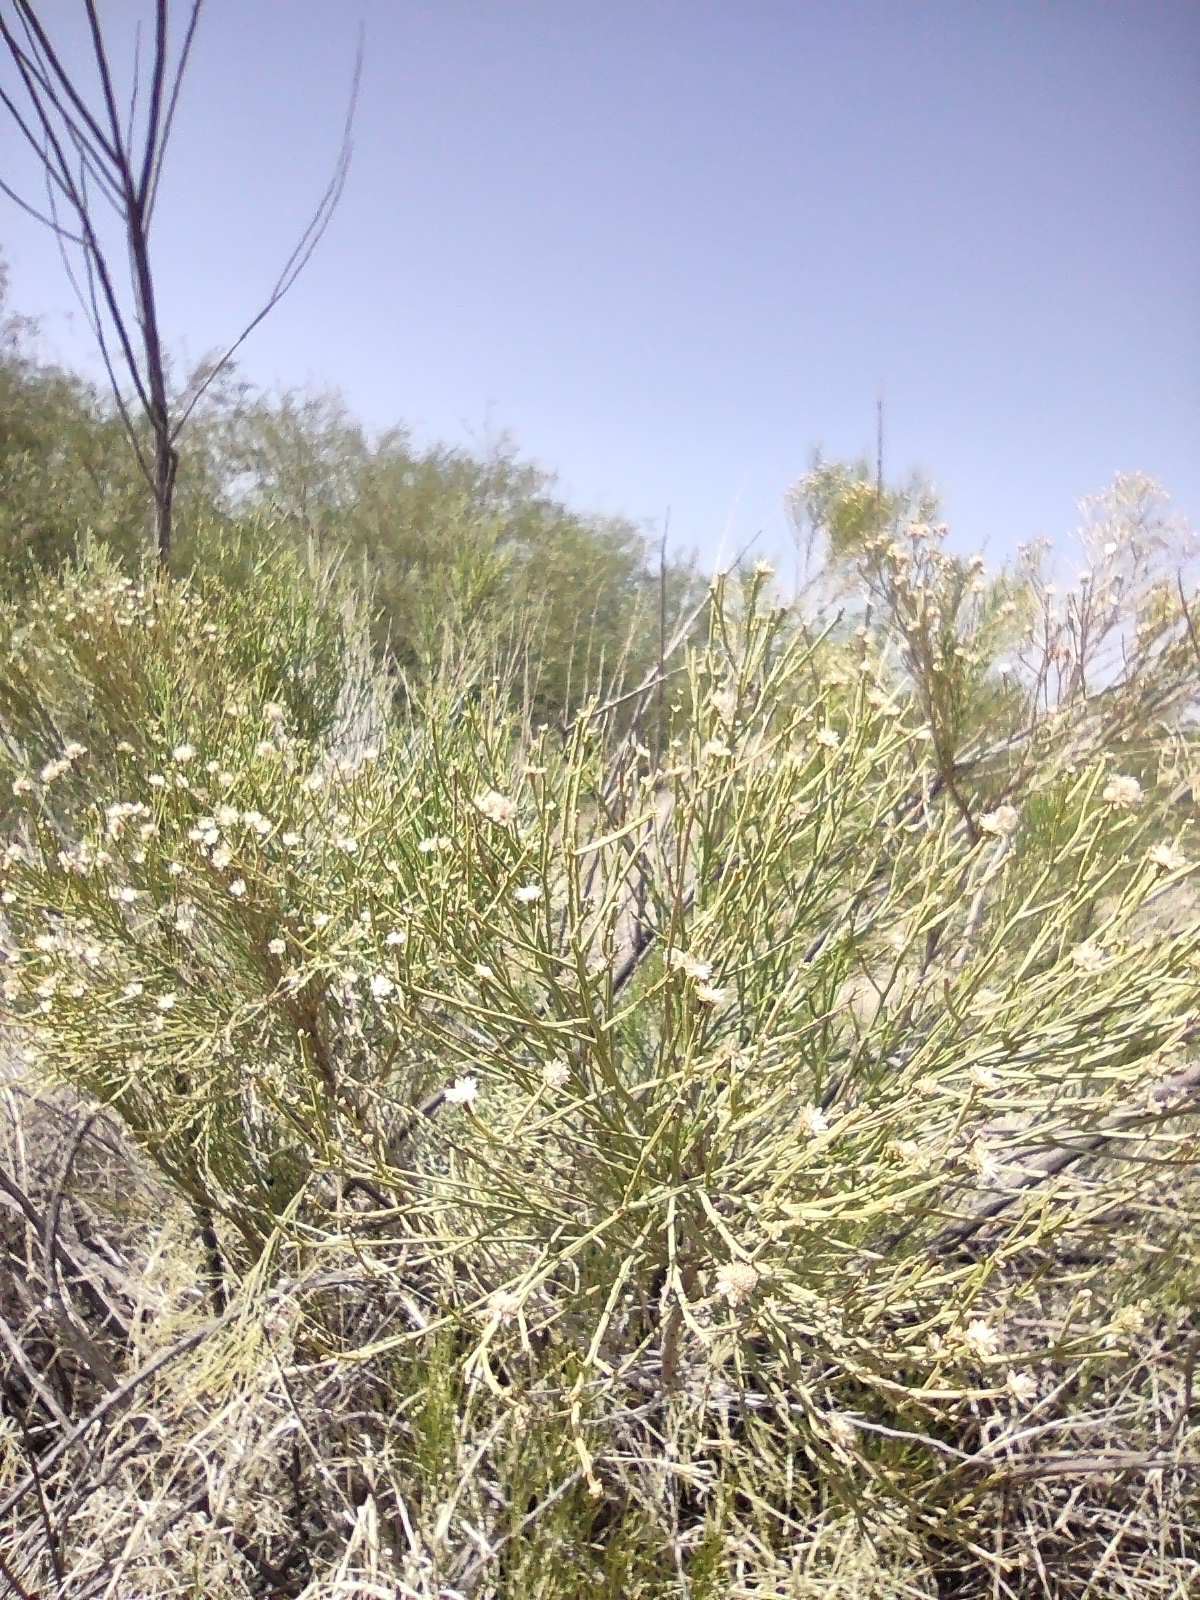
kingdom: Plantae
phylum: Tracheophyta
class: Magnoliopsida
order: Asterales
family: Asteraceae
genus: Baccharis
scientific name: Baccharis sarothroides
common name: Desert-broom
